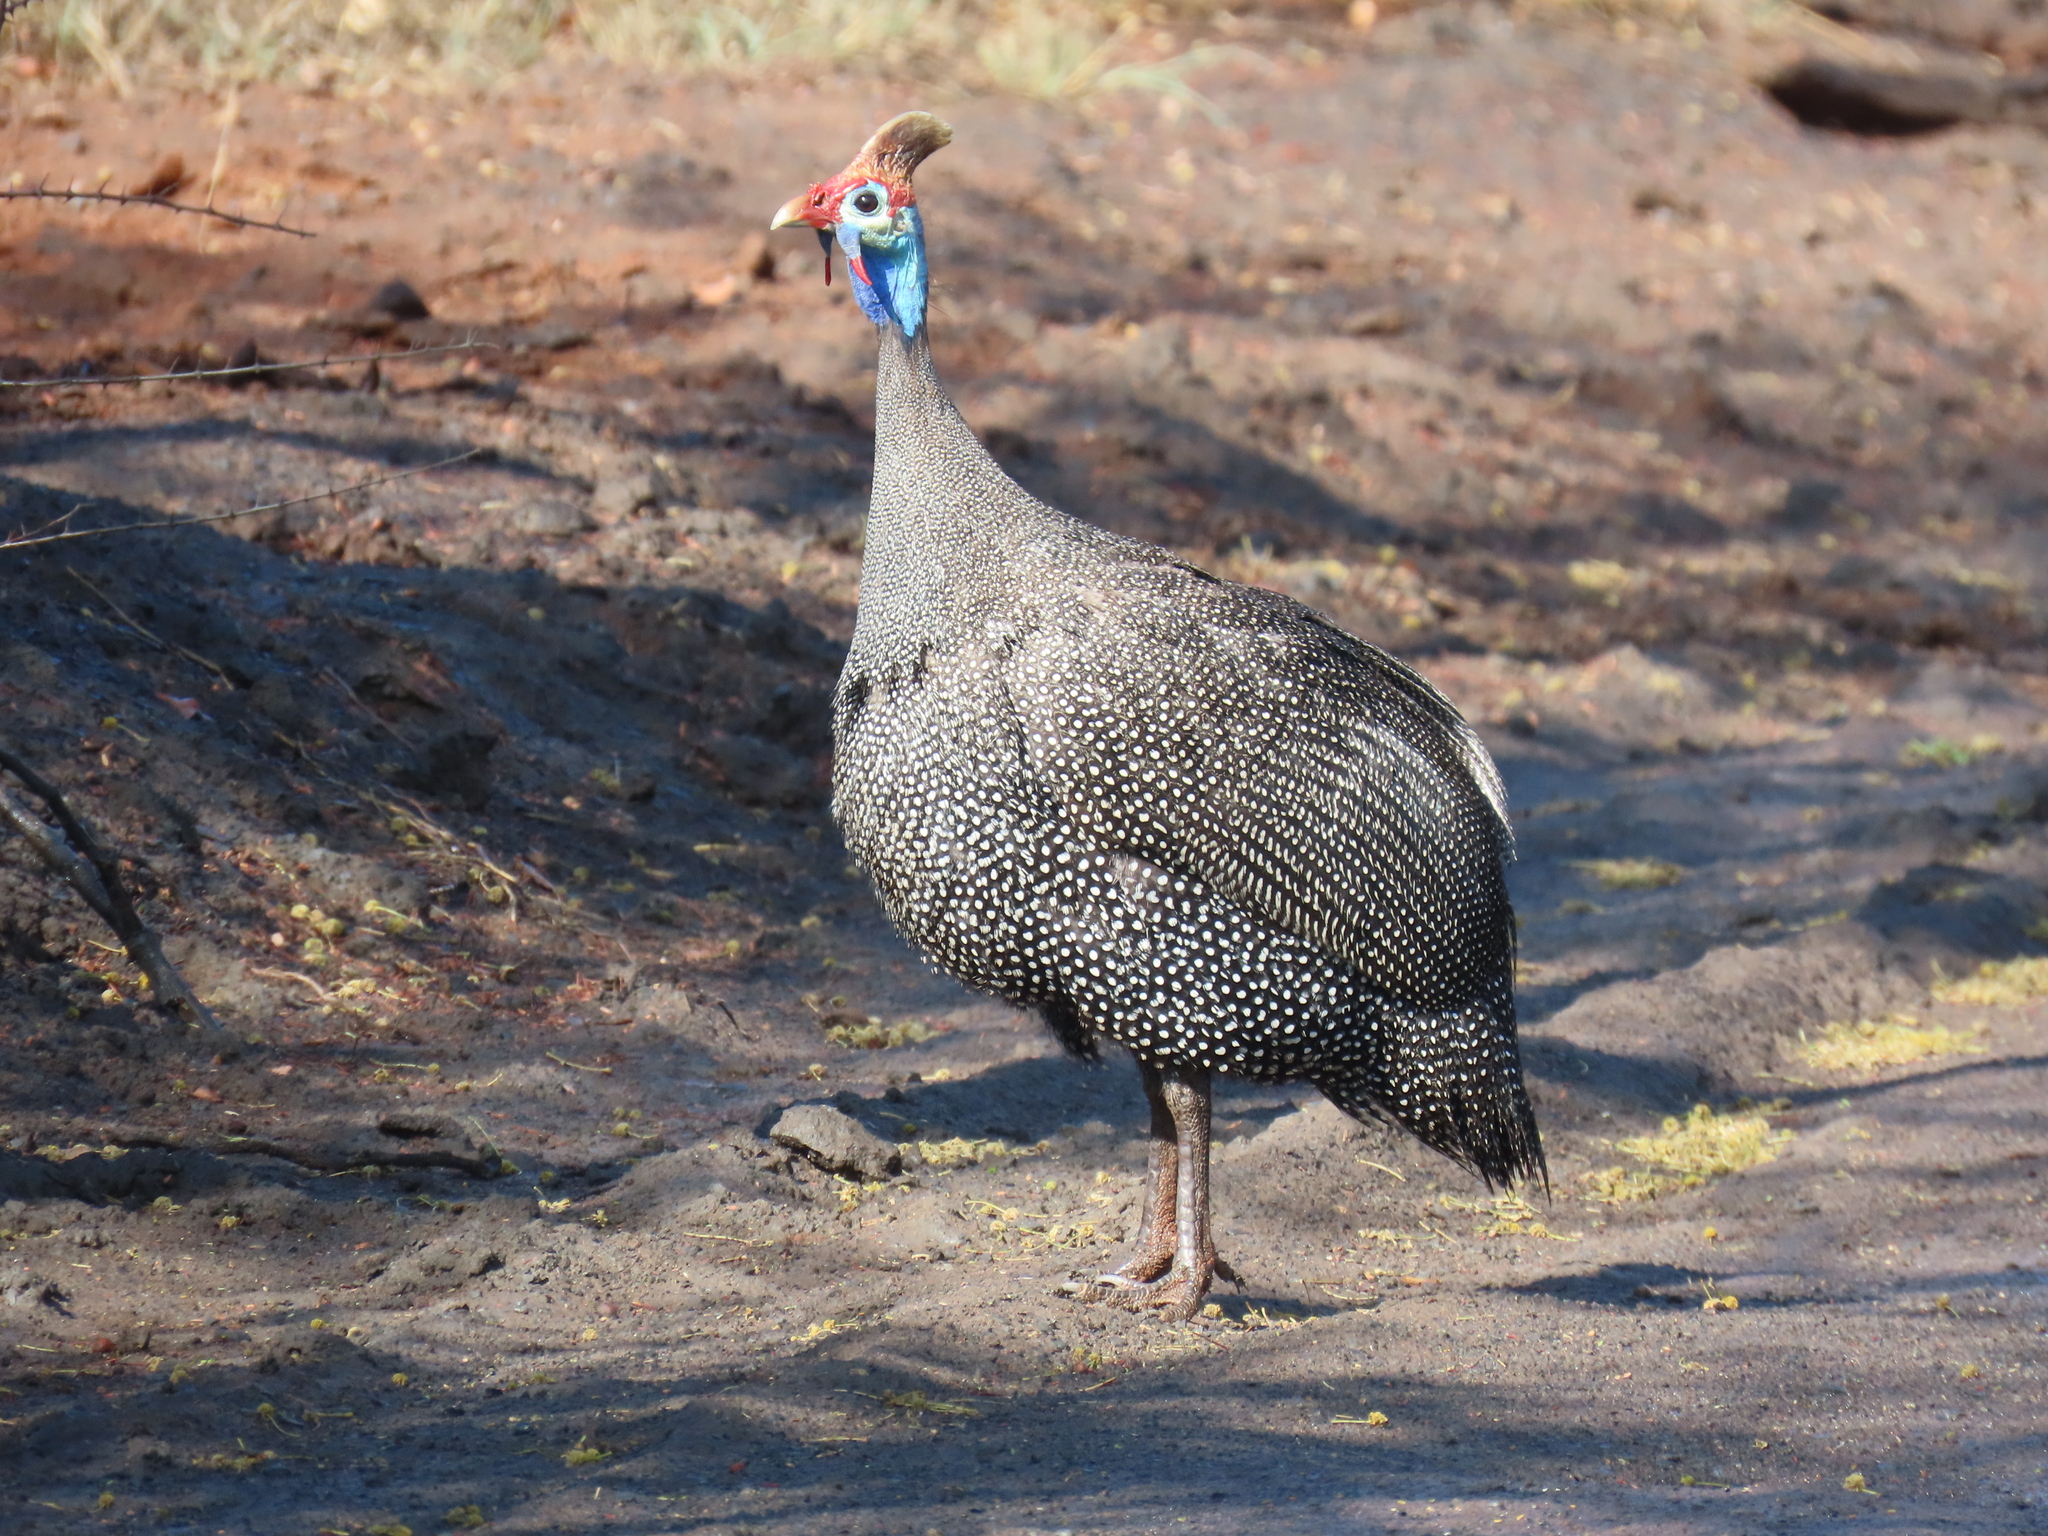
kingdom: Animalia
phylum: Chordata
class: Aves
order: Galliformes
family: Numididae
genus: Numida
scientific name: Numida meleagris
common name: Helmeted guineafowl
